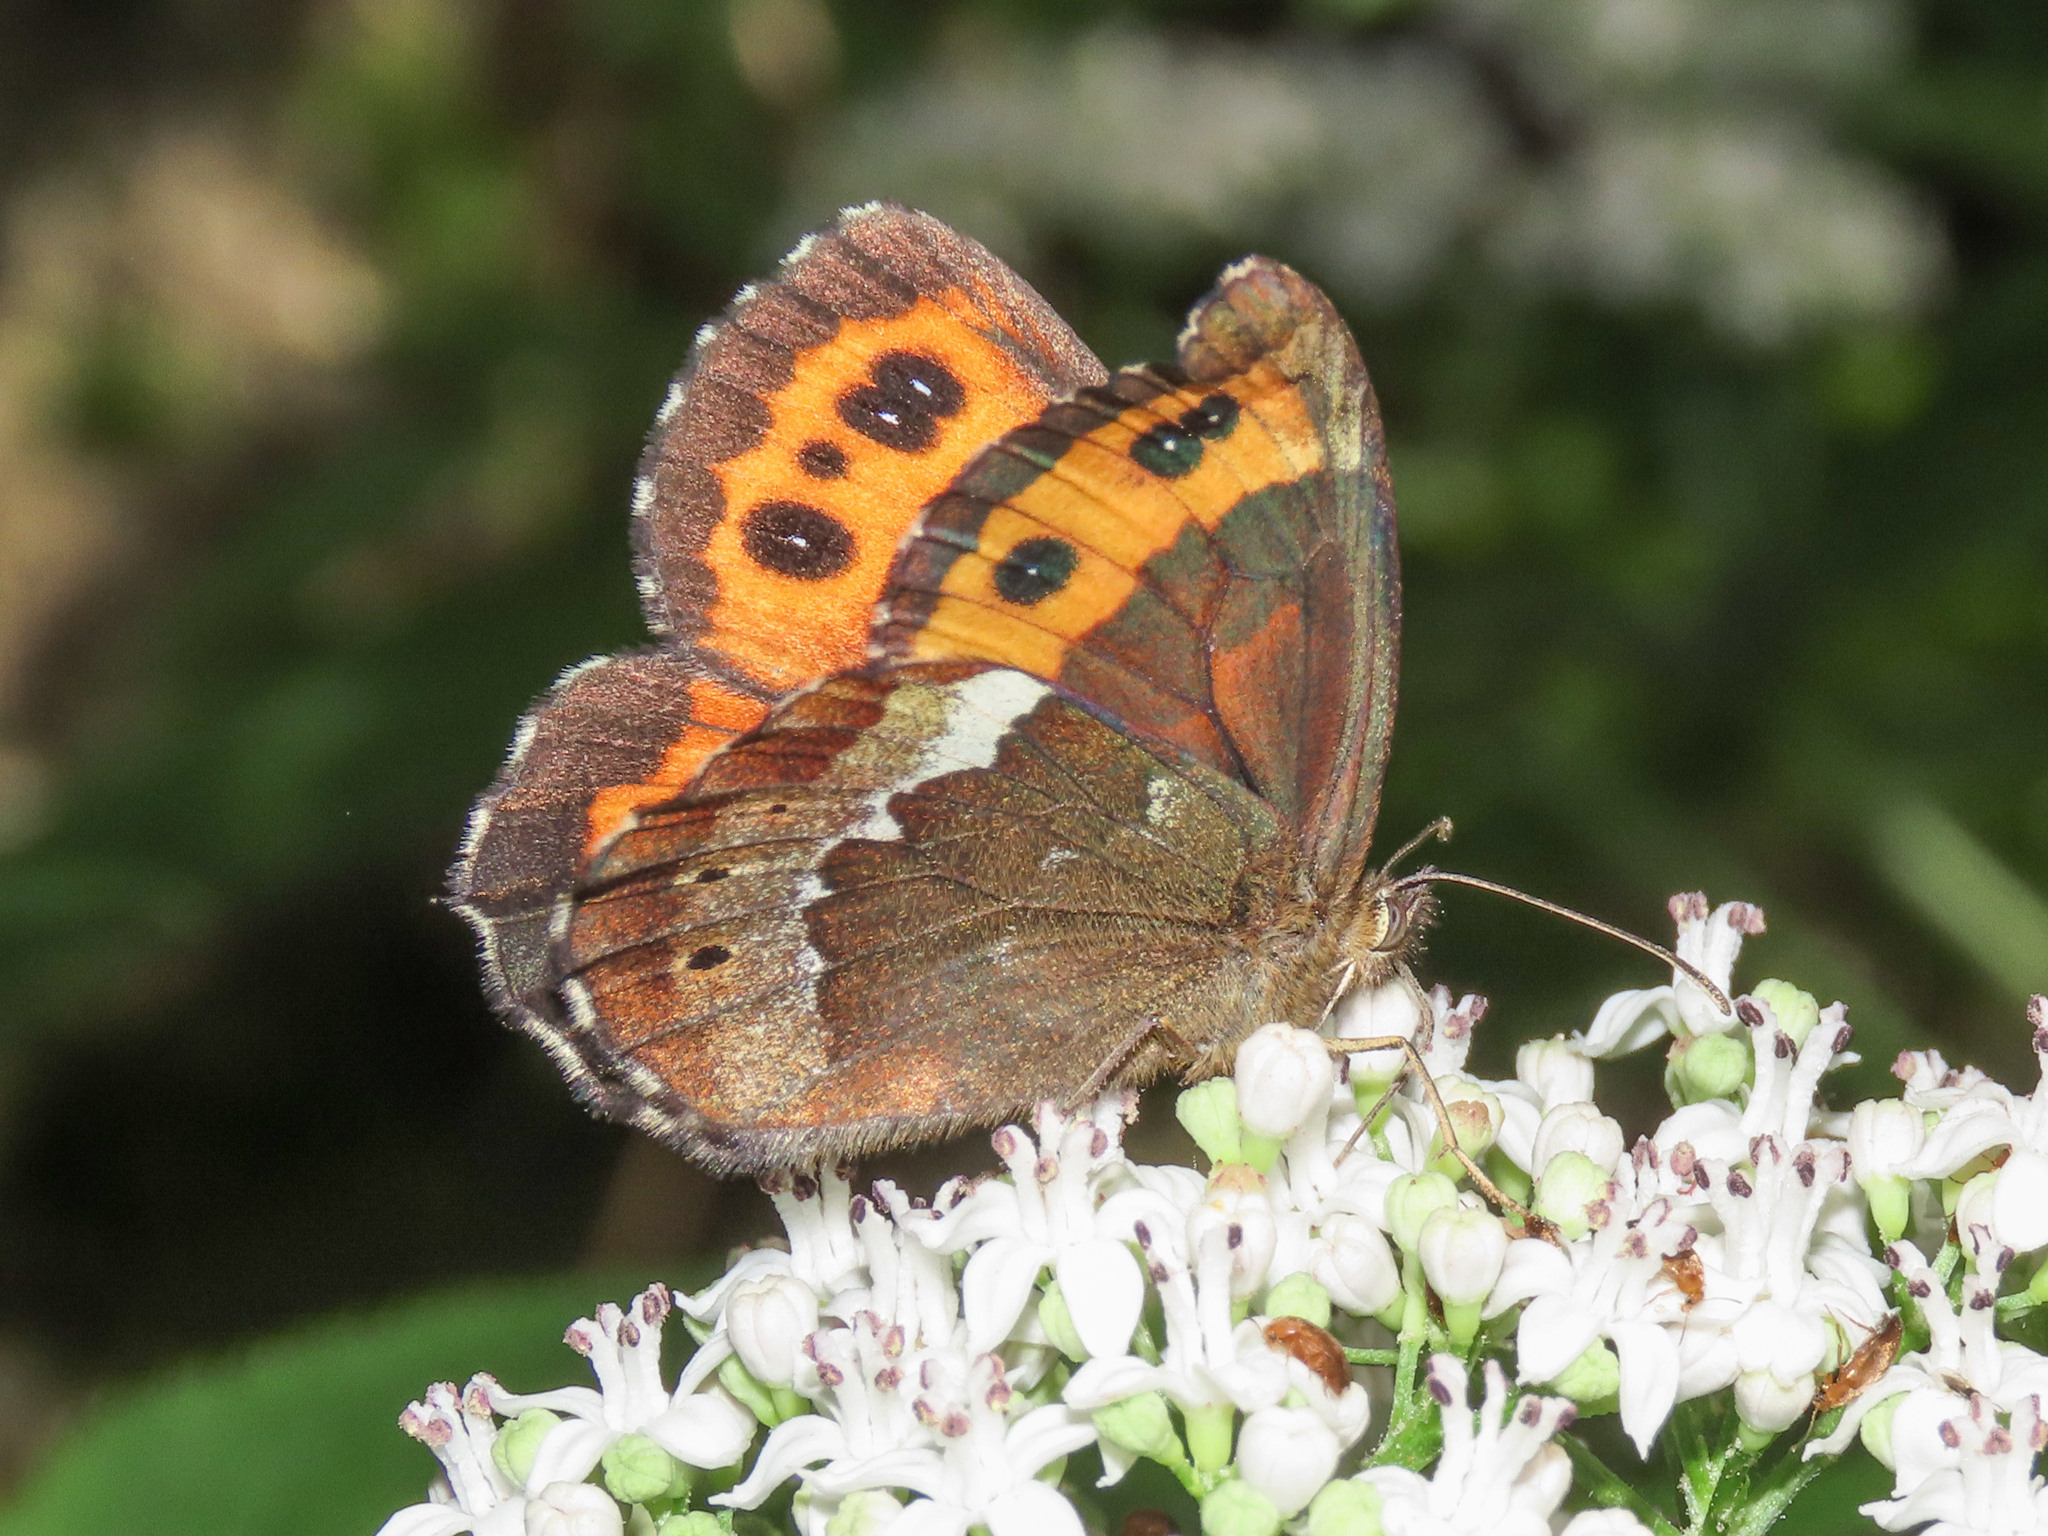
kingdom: Animalia
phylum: Arthropoda
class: Insecta
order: Lepidoptera
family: Nymphalidae
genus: Erebia
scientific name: Erebia ligea
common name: Arran brown
